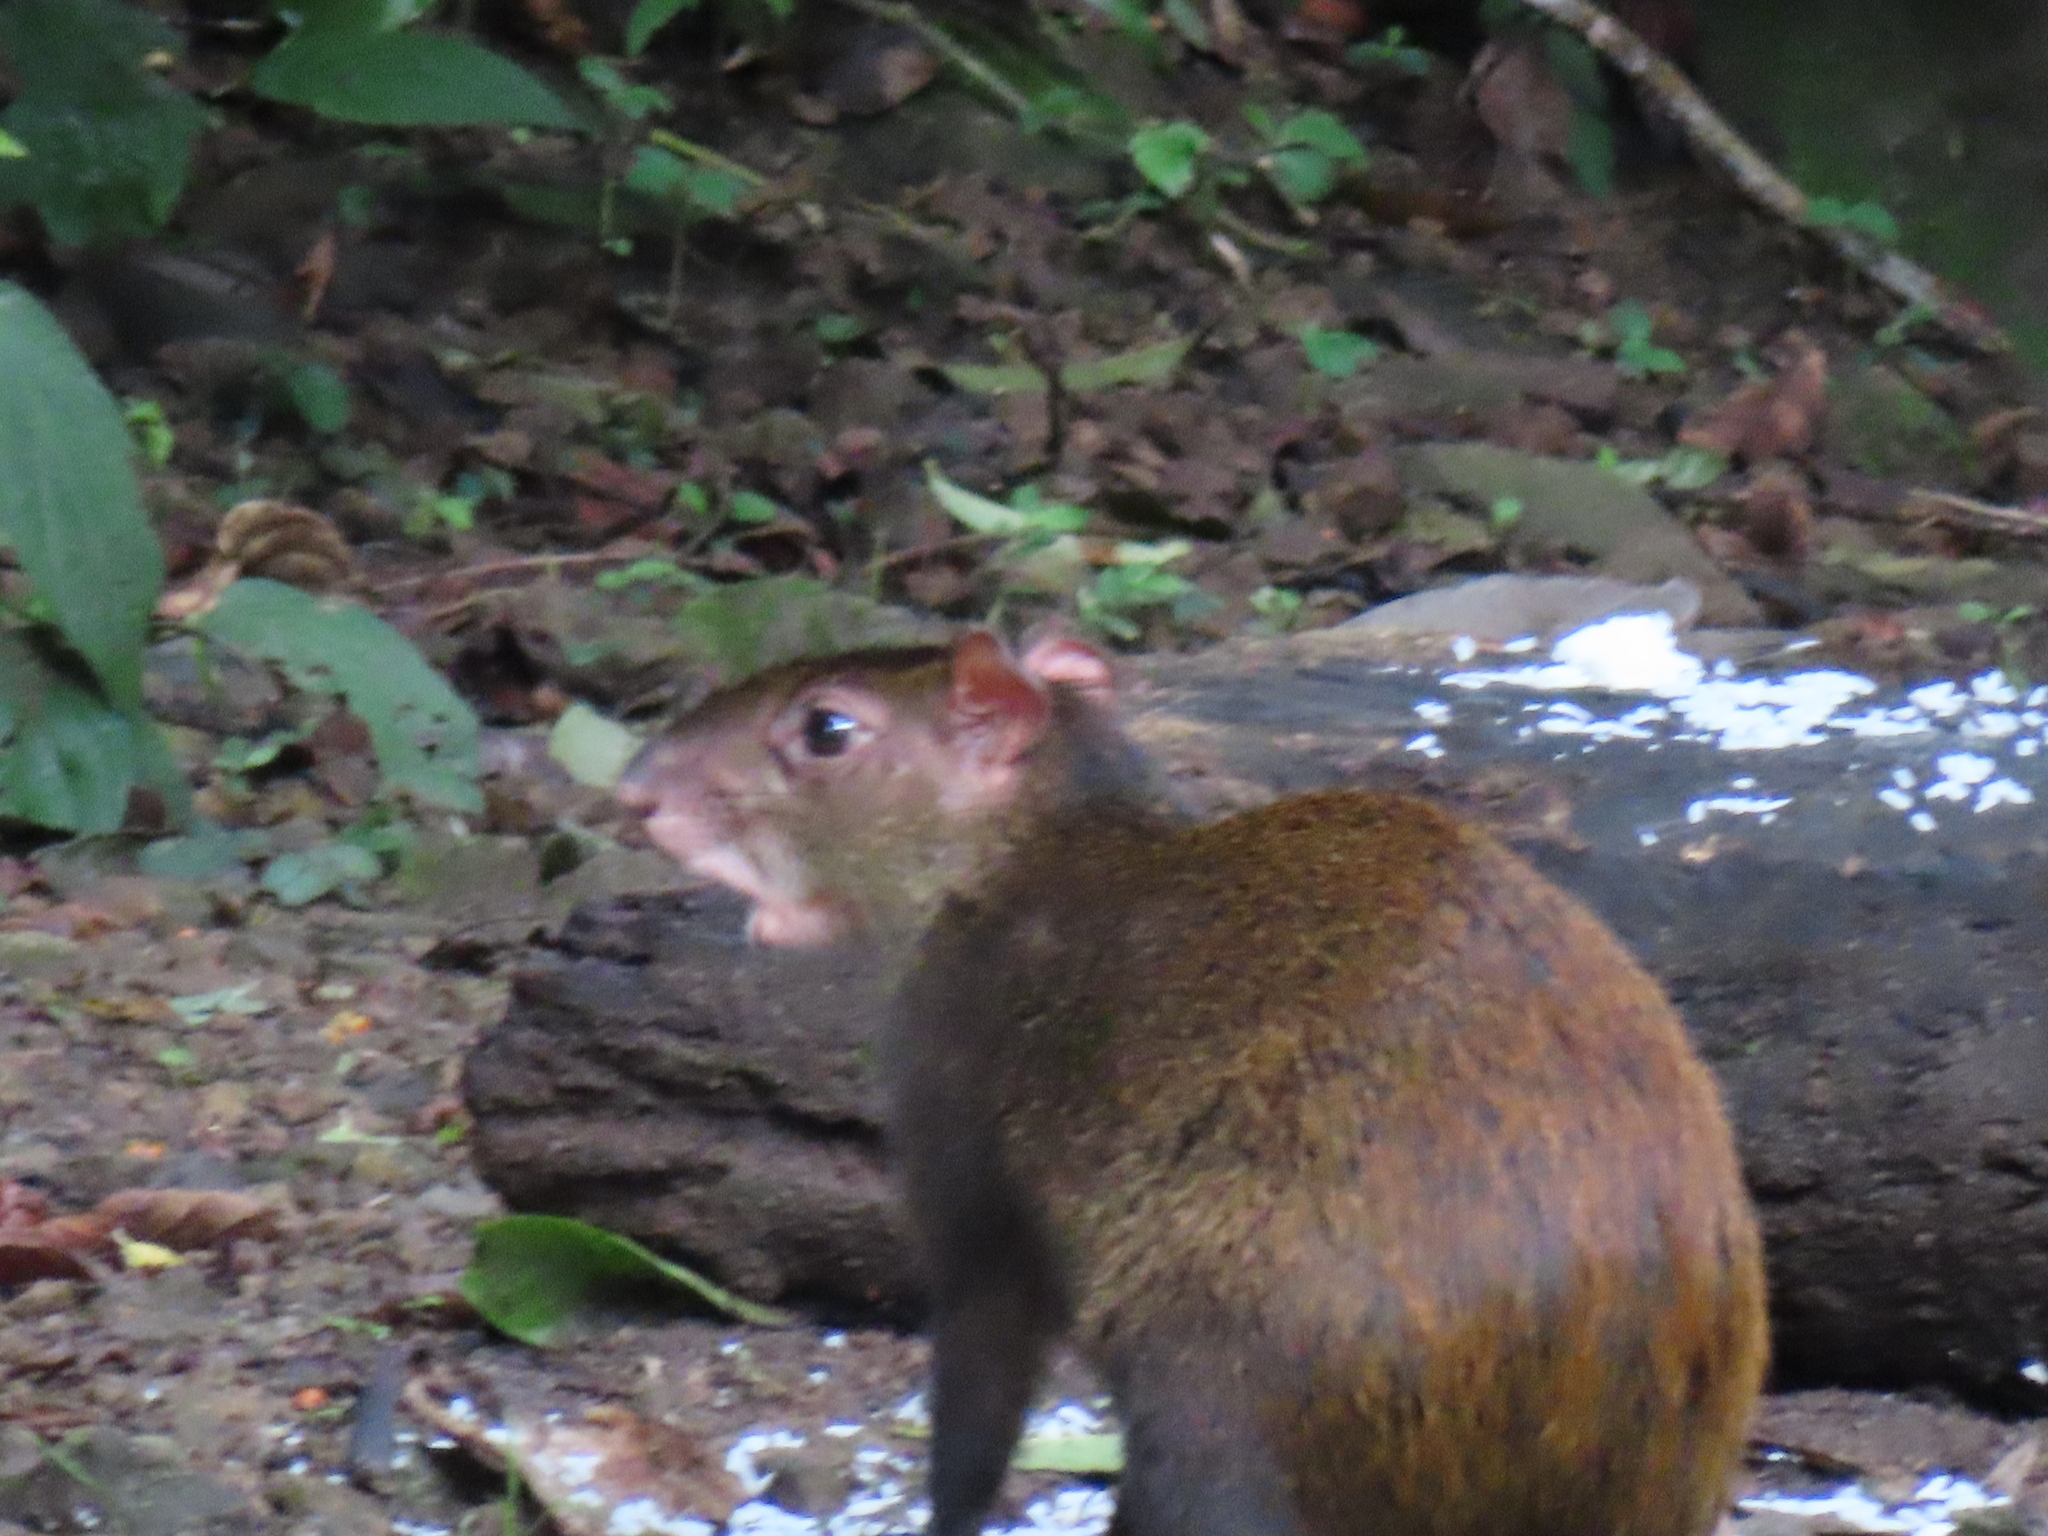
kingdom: Animalia
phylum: Chordata
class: Mammalia
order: Rodentia
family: Dasyproctidae
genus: Dasyprocta
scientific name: Dasyprocta punctata
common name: Central american agouti
